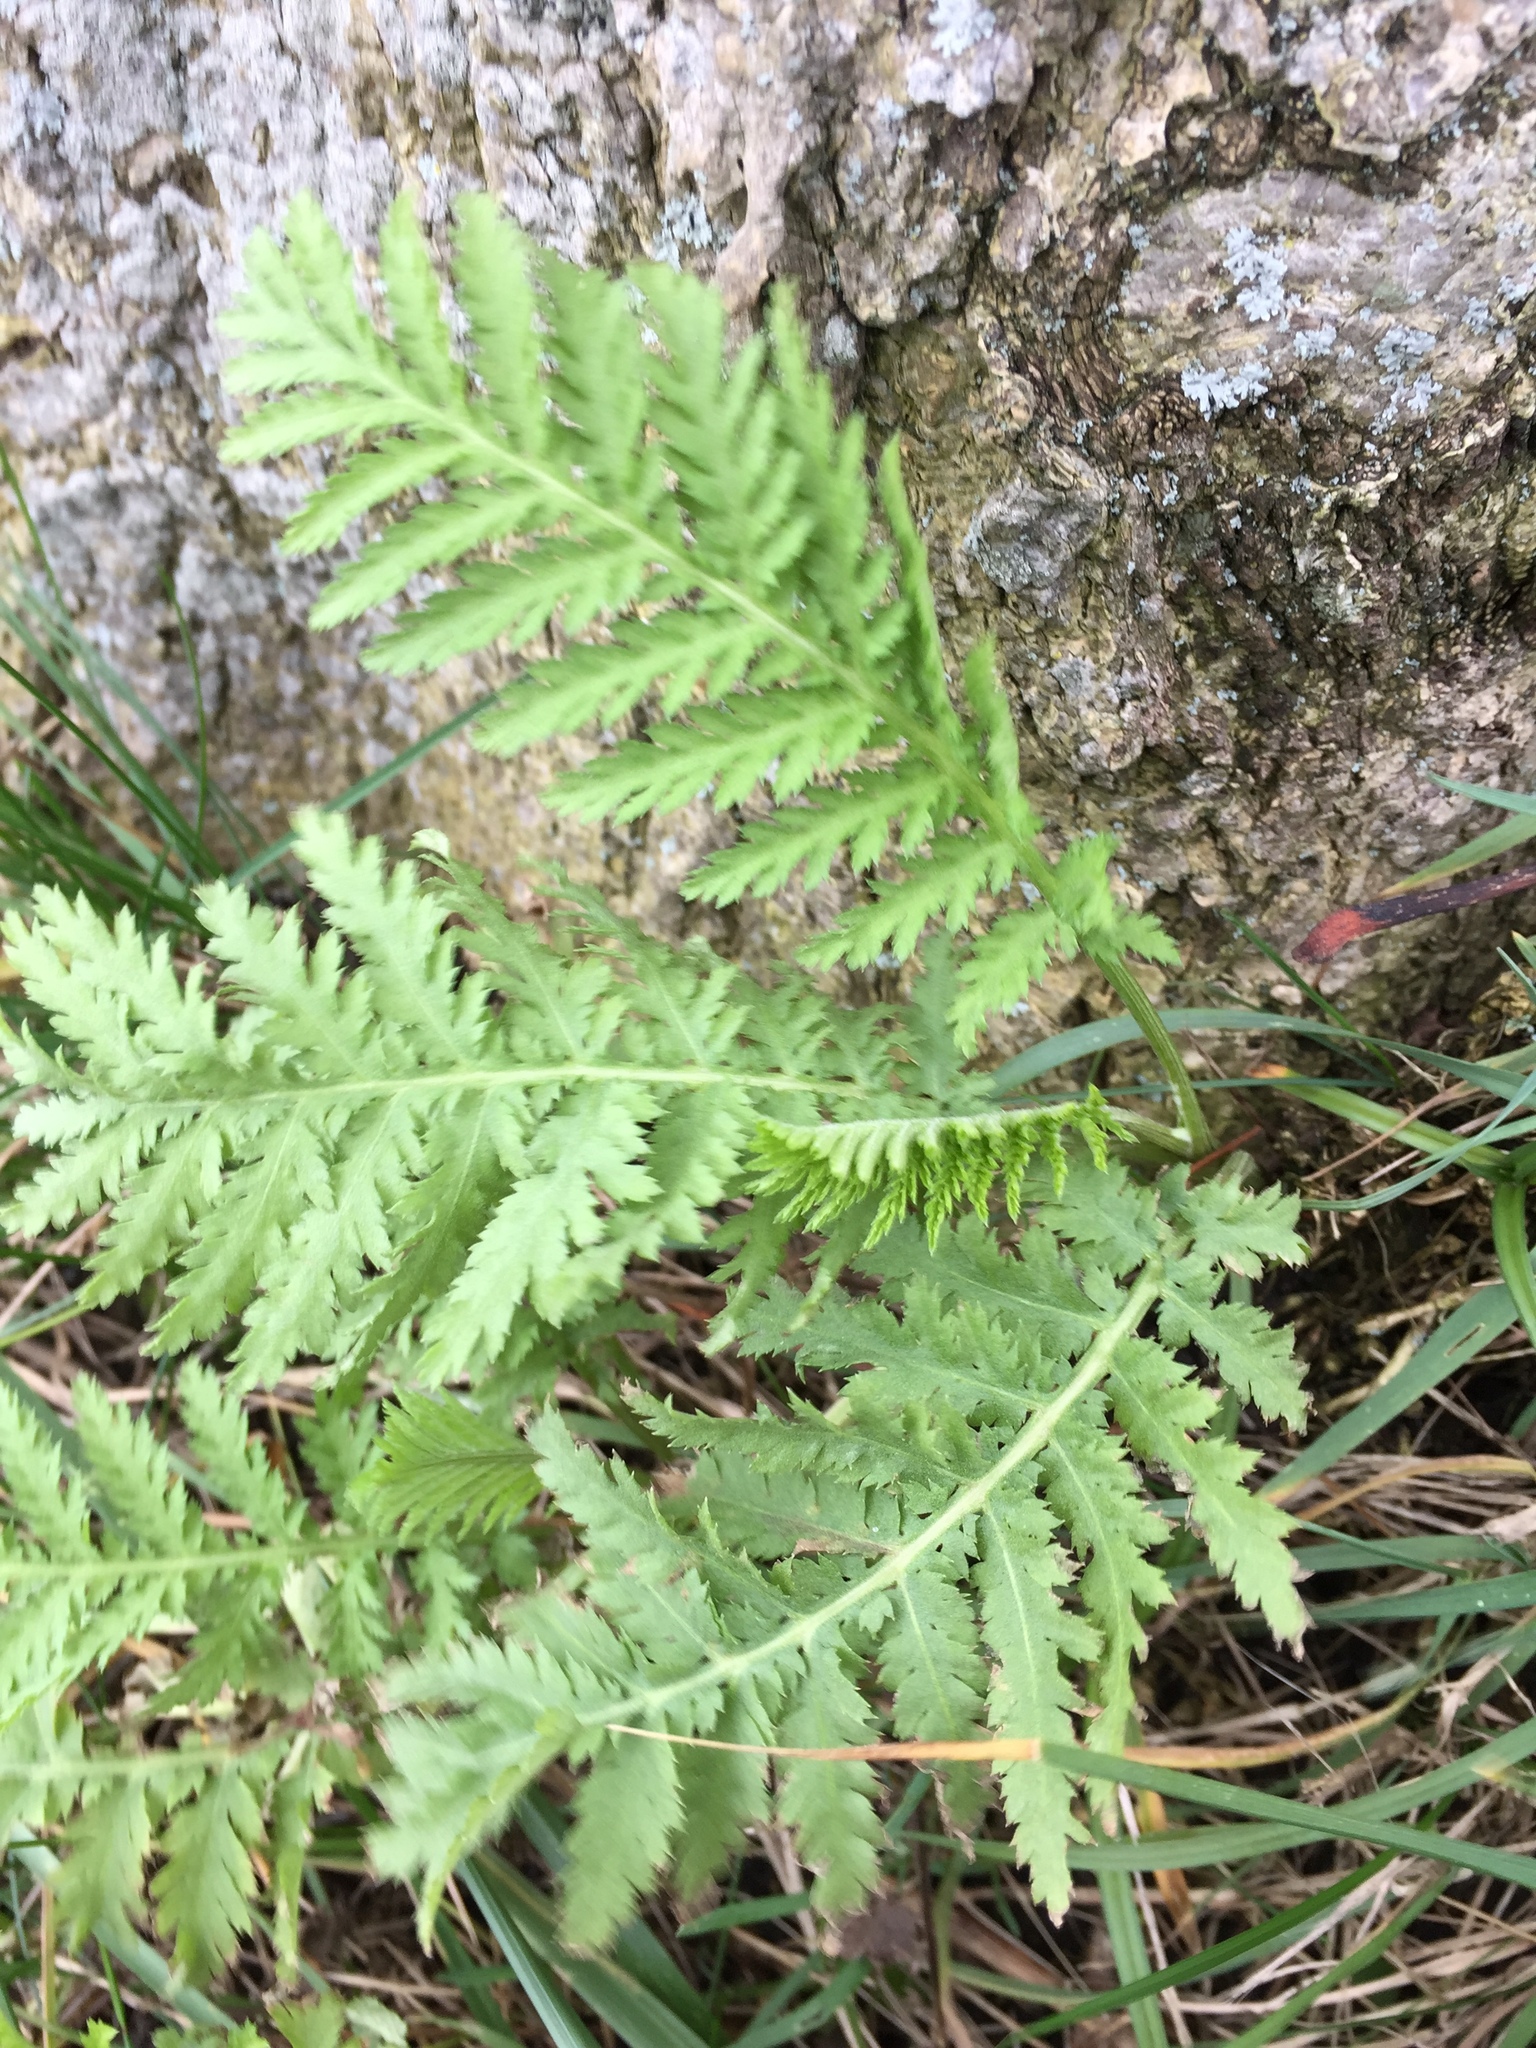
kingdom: Plantae
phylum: Tracheophyta
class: Magnoliopsida
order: Asterales
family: Asteraceae
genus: Tanacetum
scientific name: Tanacetum vulgare
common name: Common tansy
